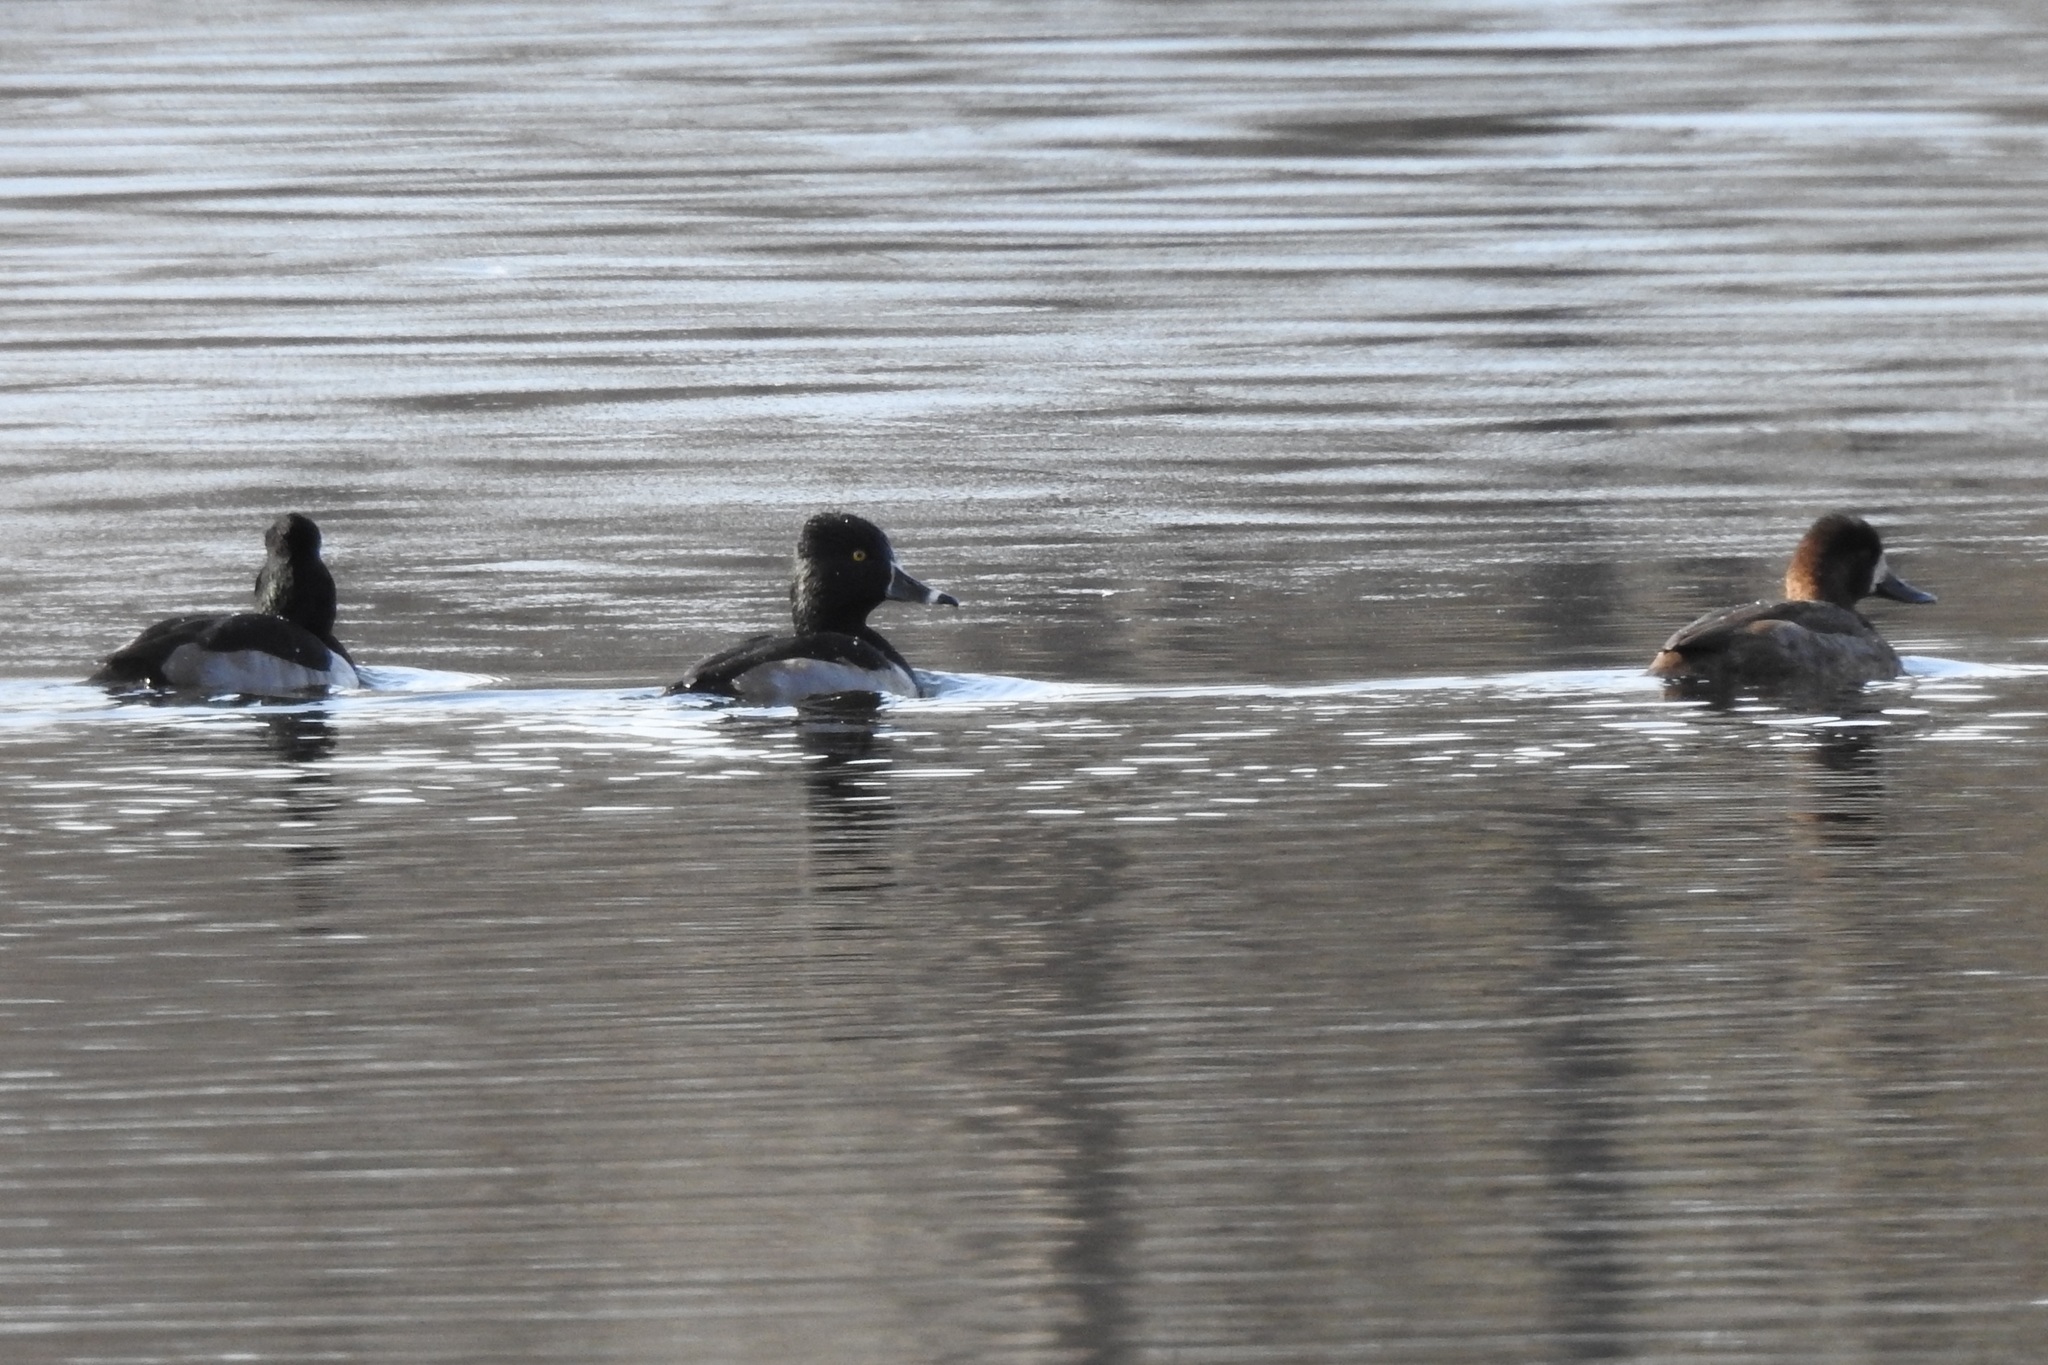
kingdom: Animalia
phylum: Chordata
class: Aves
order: Anseriformes
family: Anatidae
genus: Aythya
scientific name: Aythya collaris
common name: Ring-necked duck
